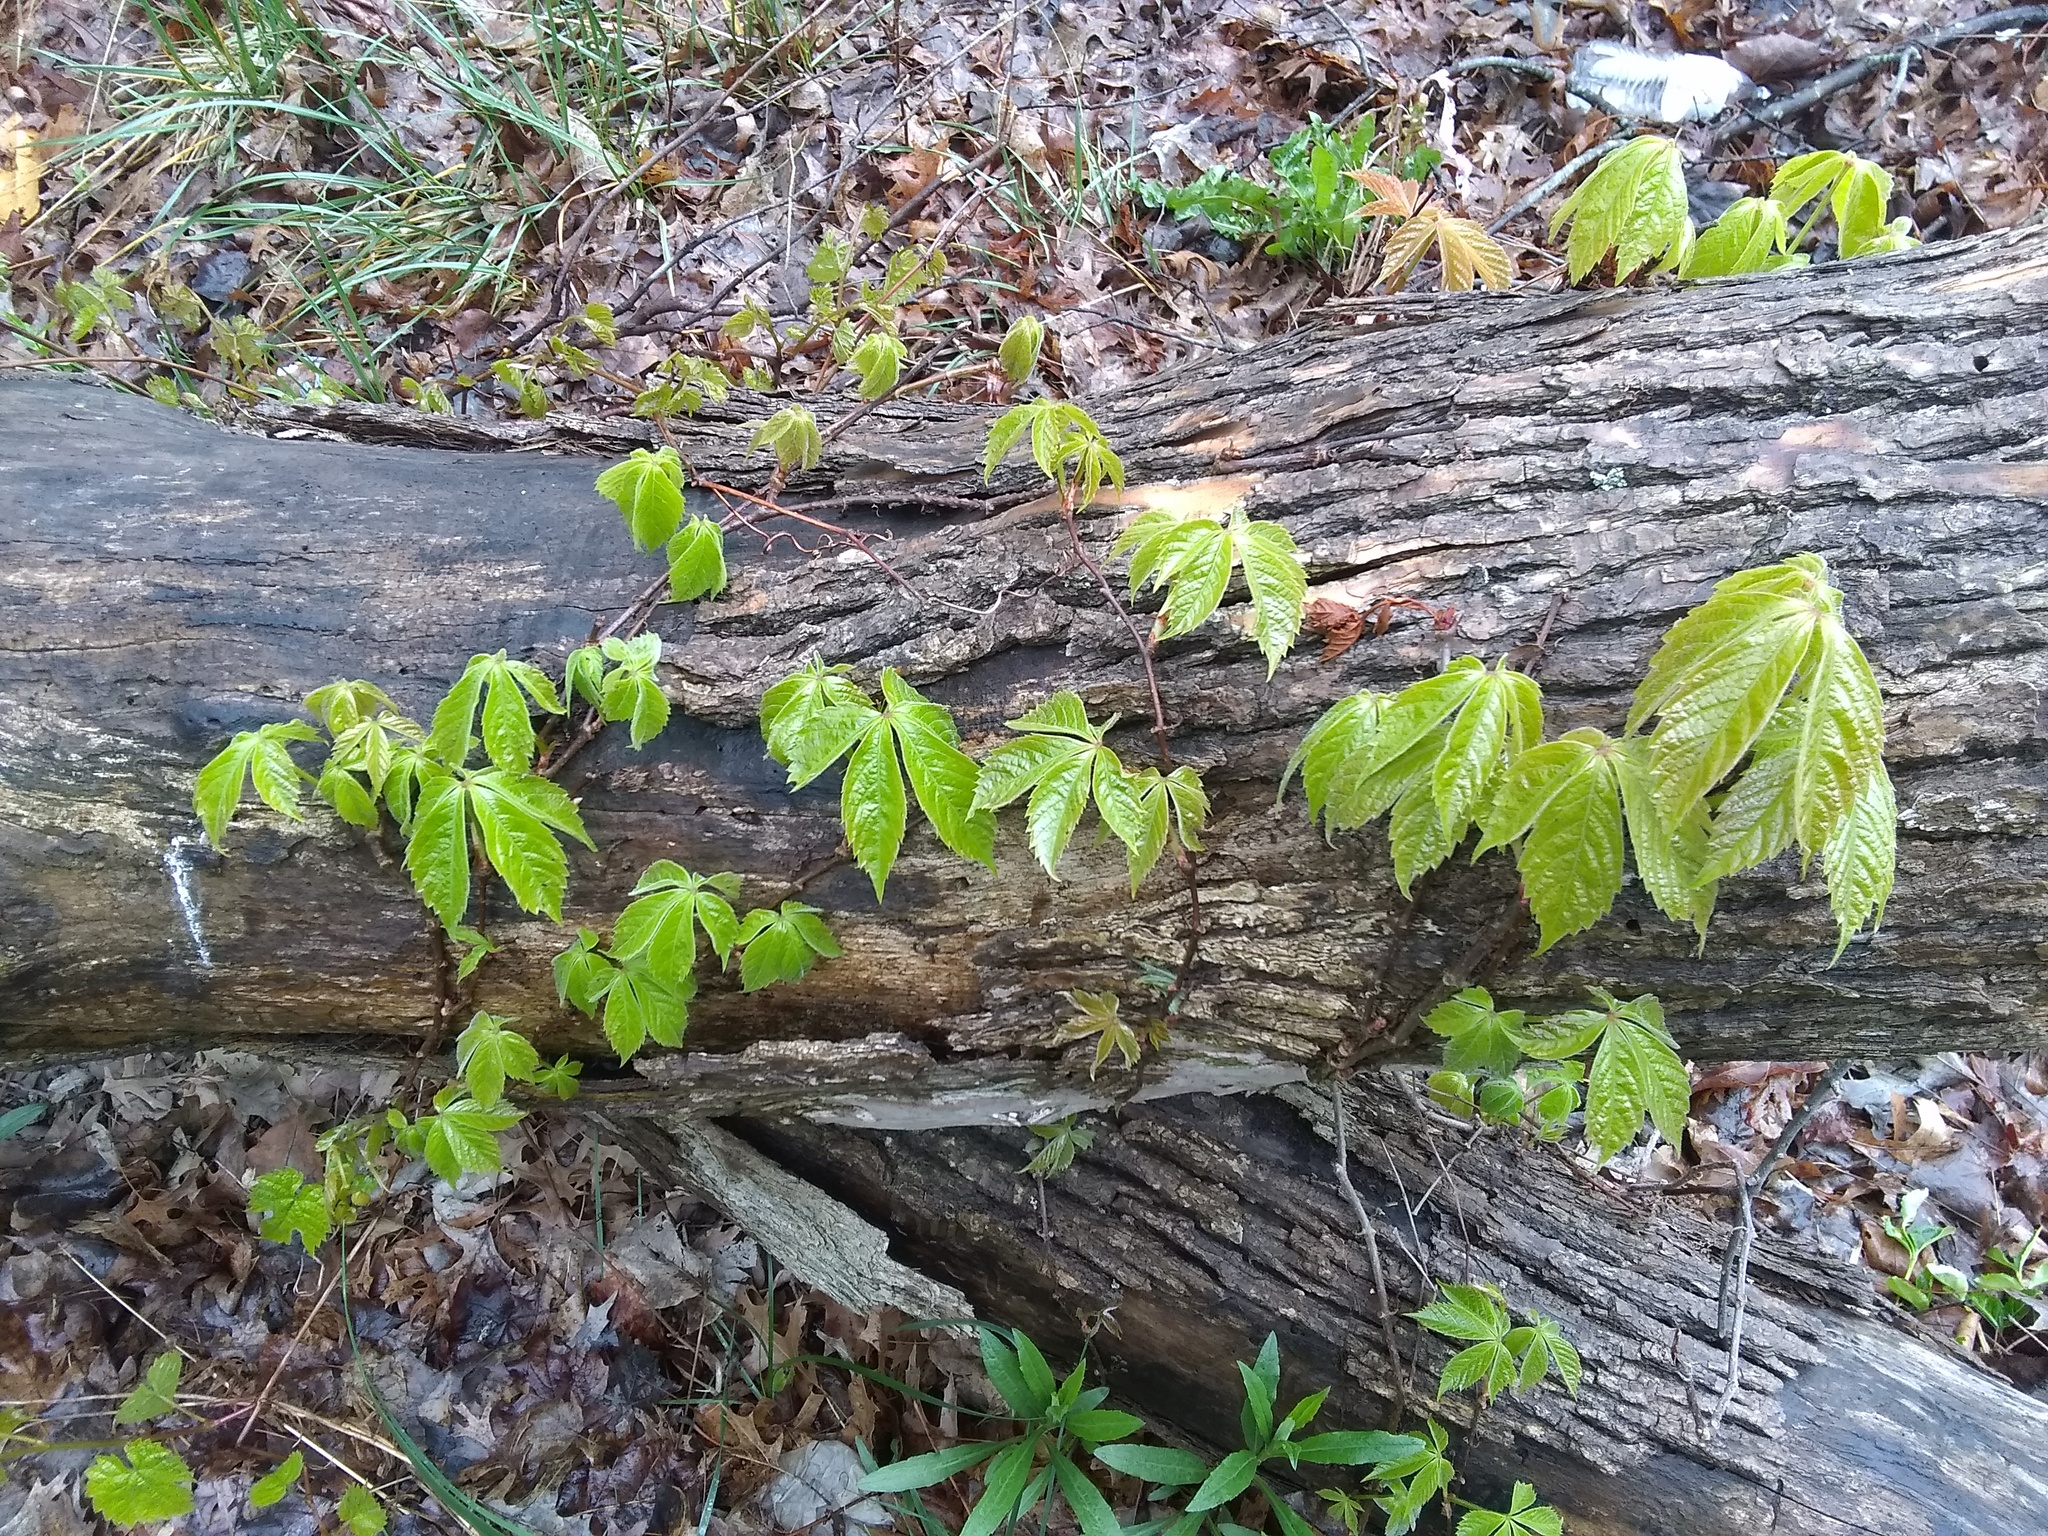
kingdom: Plantae
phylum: Tracheophyta
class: Magnoliopsida
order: Vitales
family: Vitaceae
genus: Parthenocissus
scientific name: Parthenocissus quinquefolia
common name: Virginia-creeper
